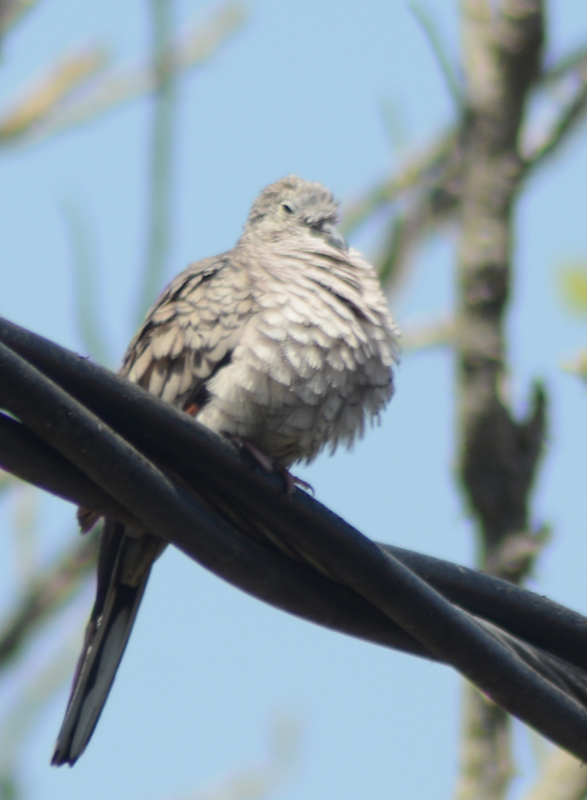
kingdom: Animalia
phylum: Chordata
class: Aves
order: Columbiformes
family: Columbidae
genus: Columbina
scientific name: Columbina inca
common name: Inca dove
